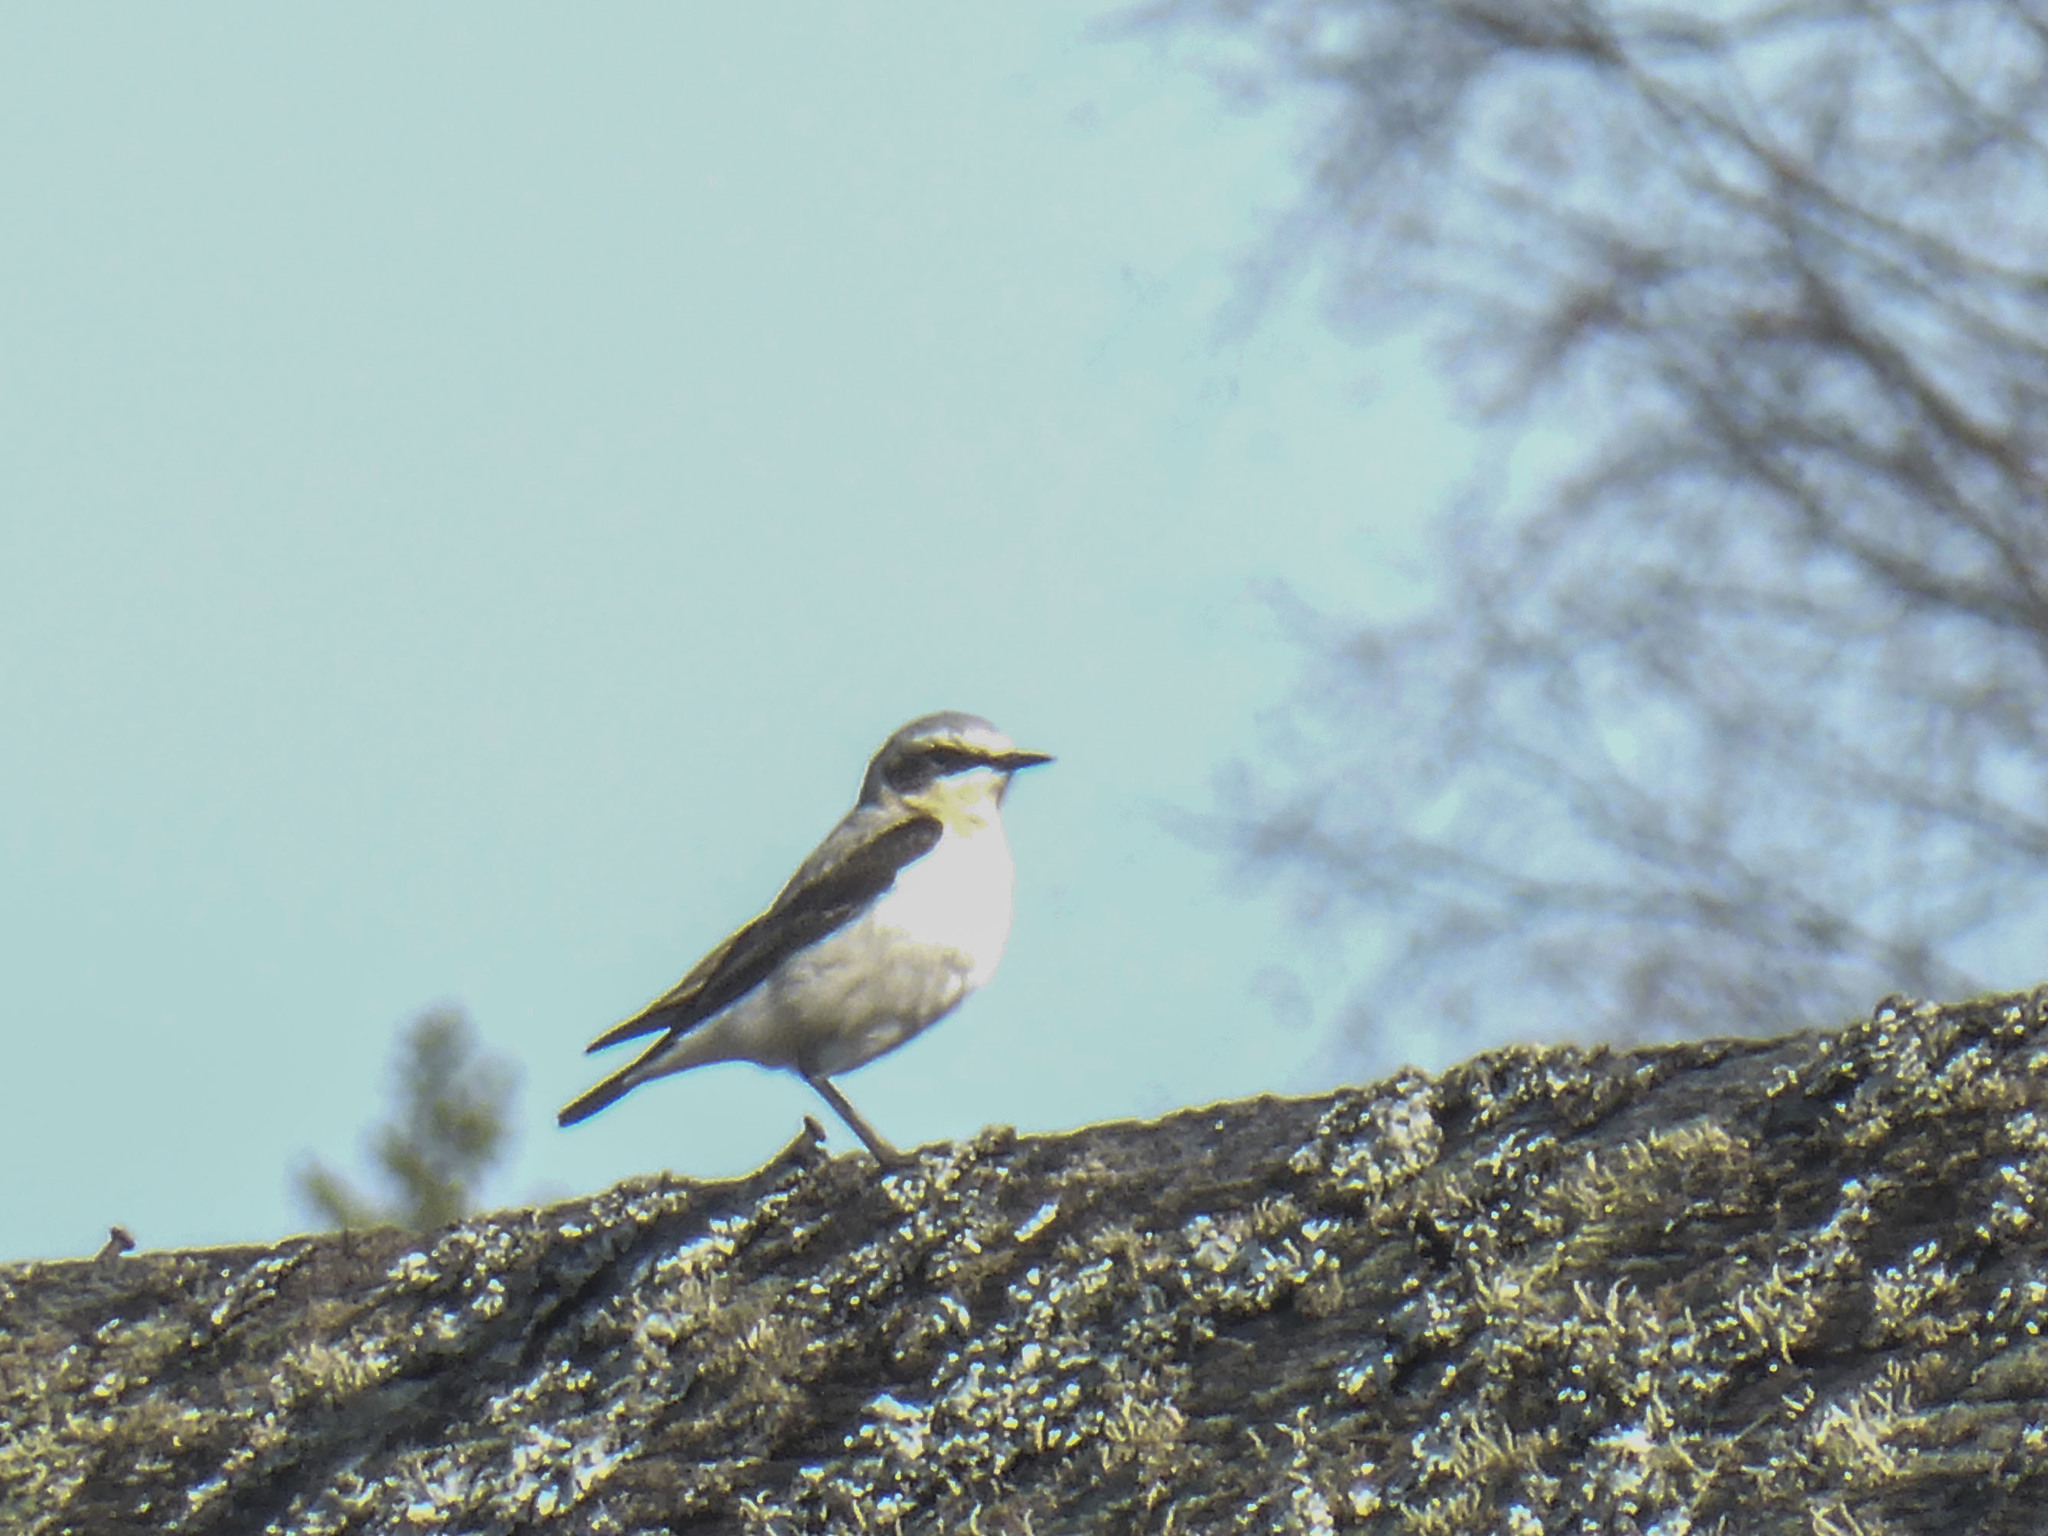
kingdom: Animalia
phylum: Chordata
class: Aves
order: Passeriformes
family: Muscicapidae
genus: Oenanthe
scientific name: Oenanthe oenanthe
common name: Northern wheatear
